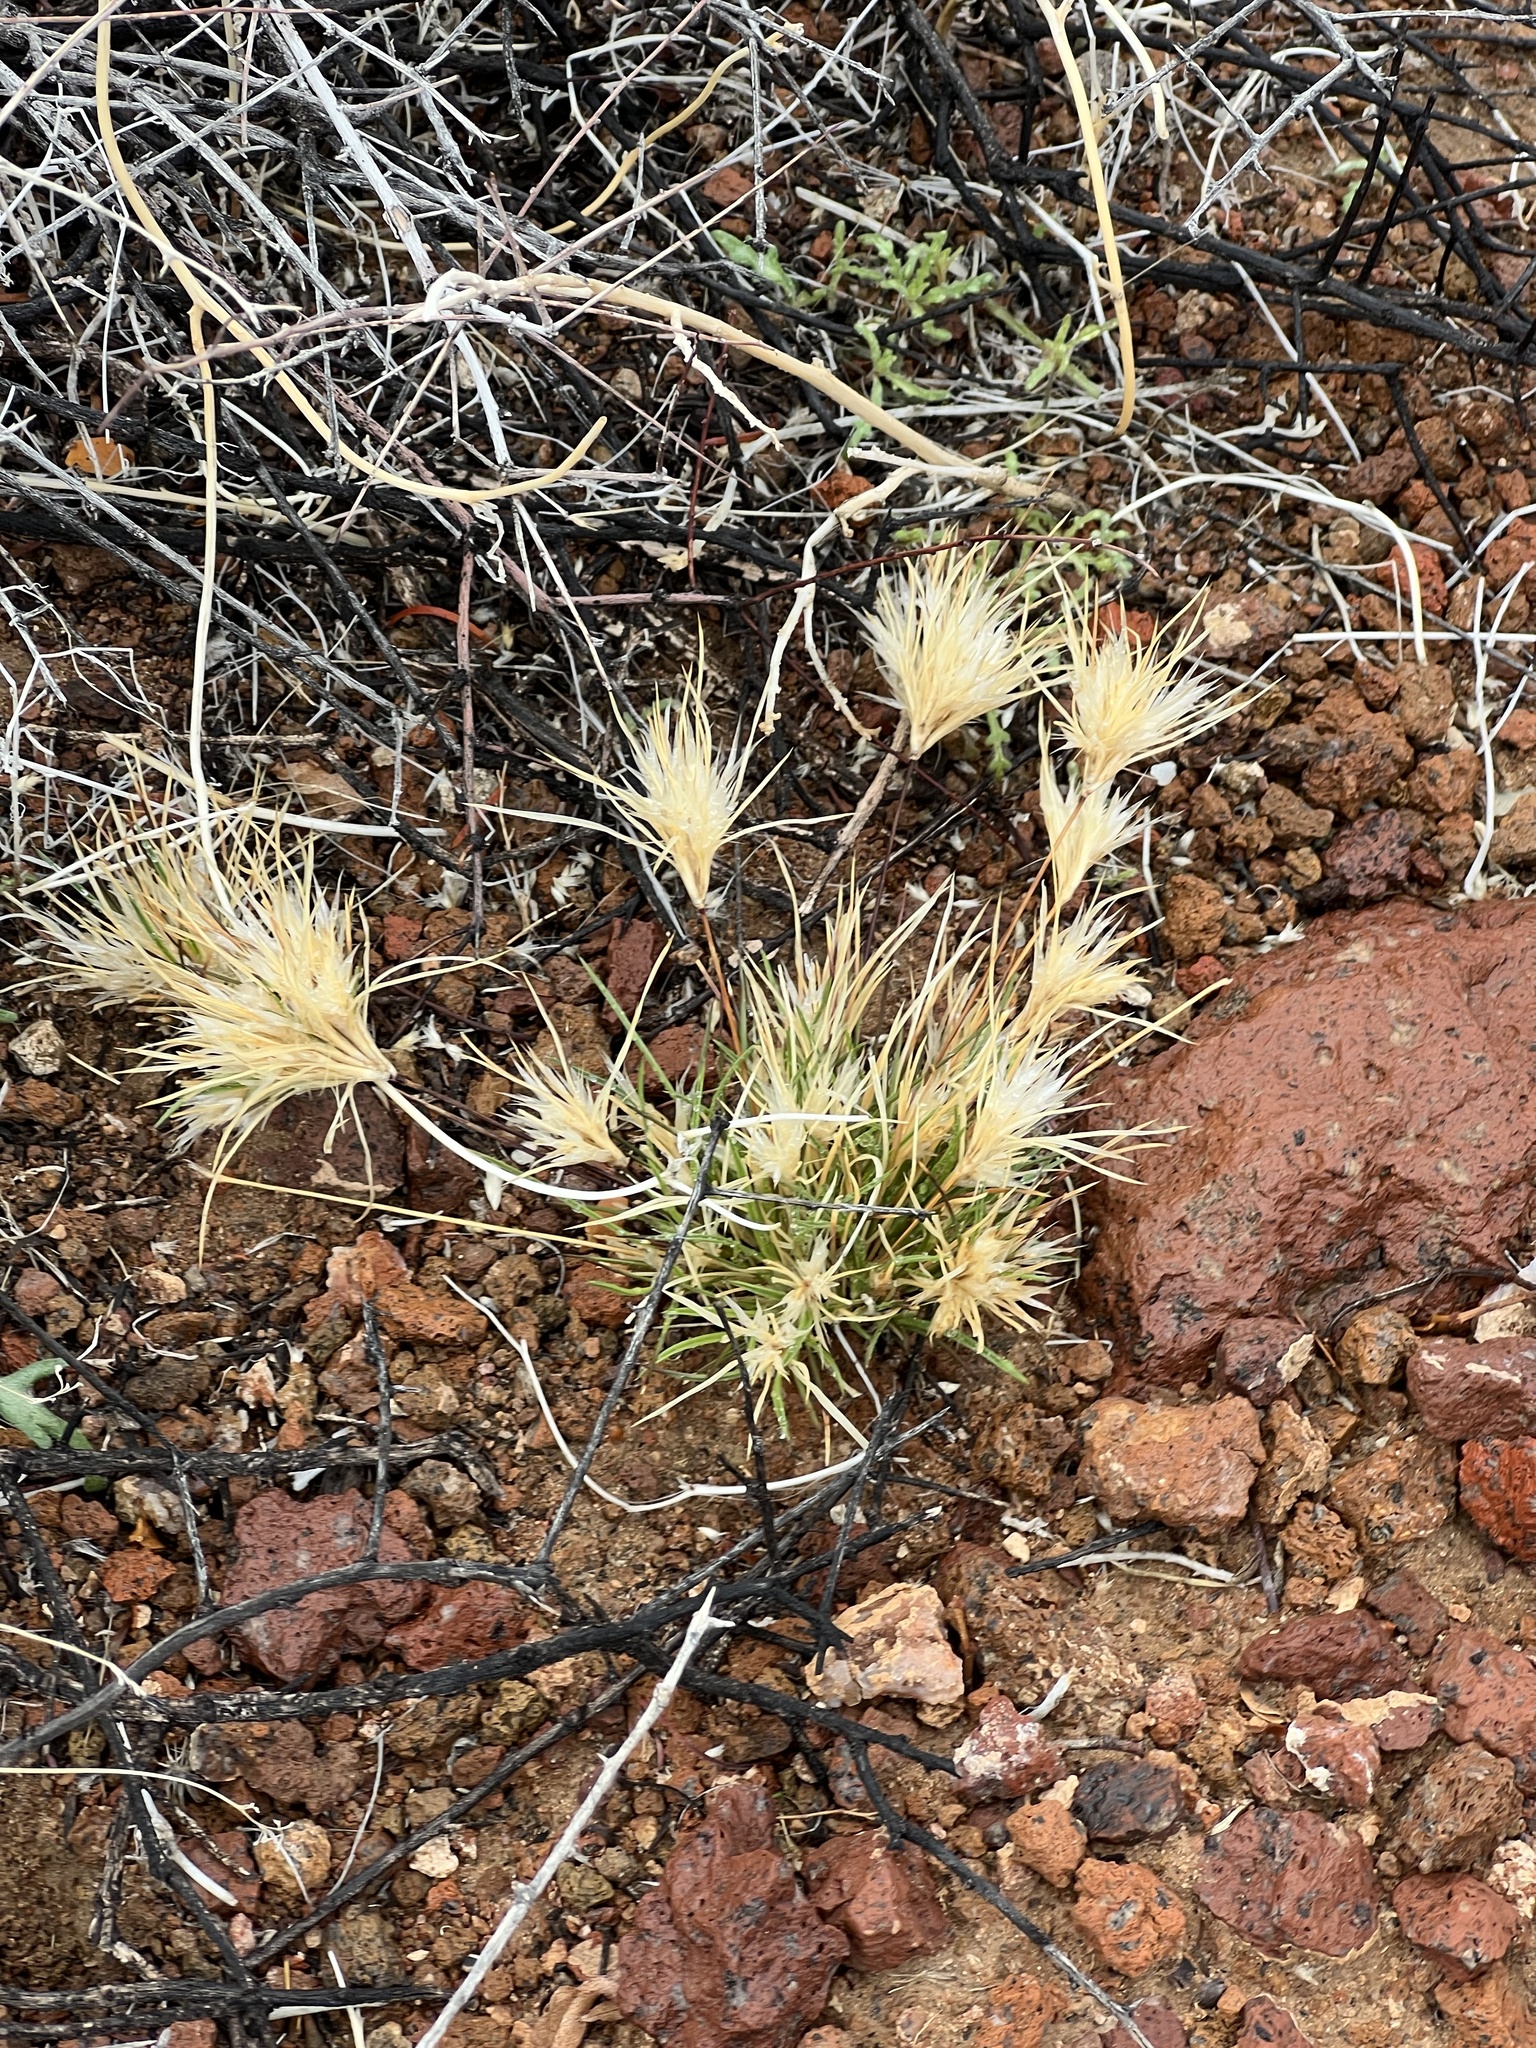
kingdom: Plantae
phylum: Tracheophyta
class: Liliopsida
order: Poales
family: Poaceae
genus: Dasyochloa
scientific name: Dasyochloa pulchella
